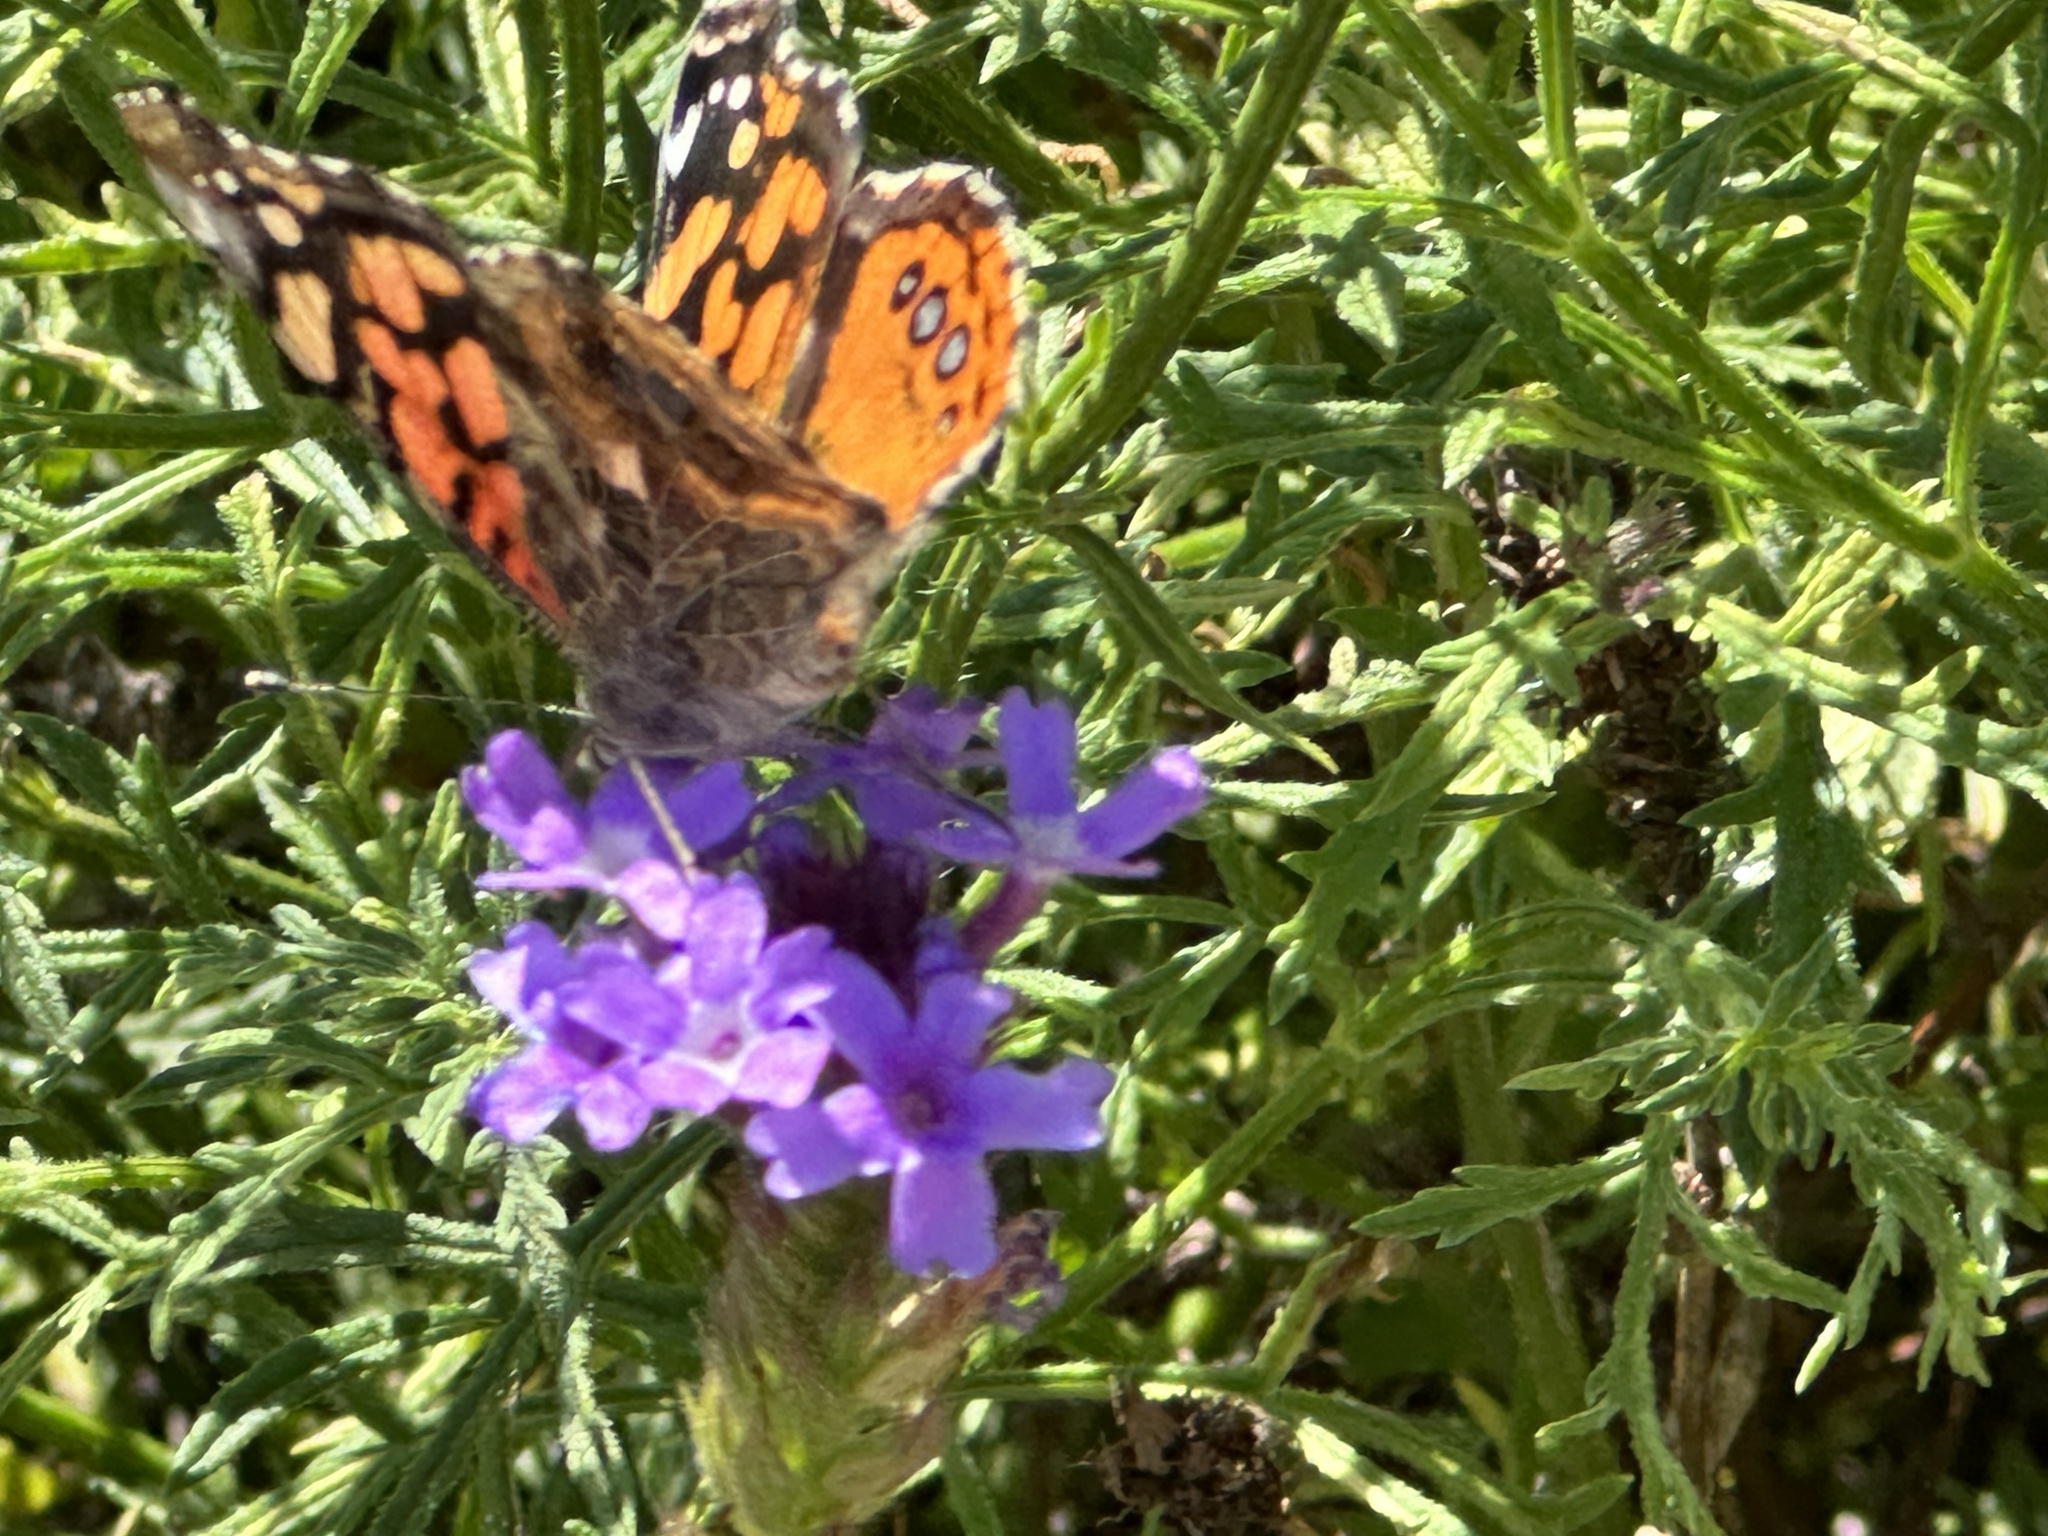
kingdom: Animalia
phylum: Arthropoda
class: Insecta
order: Lepidoptera
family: Nymphalidae
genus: Vanessa
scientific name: Vanessa annabella
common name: West coast lady
